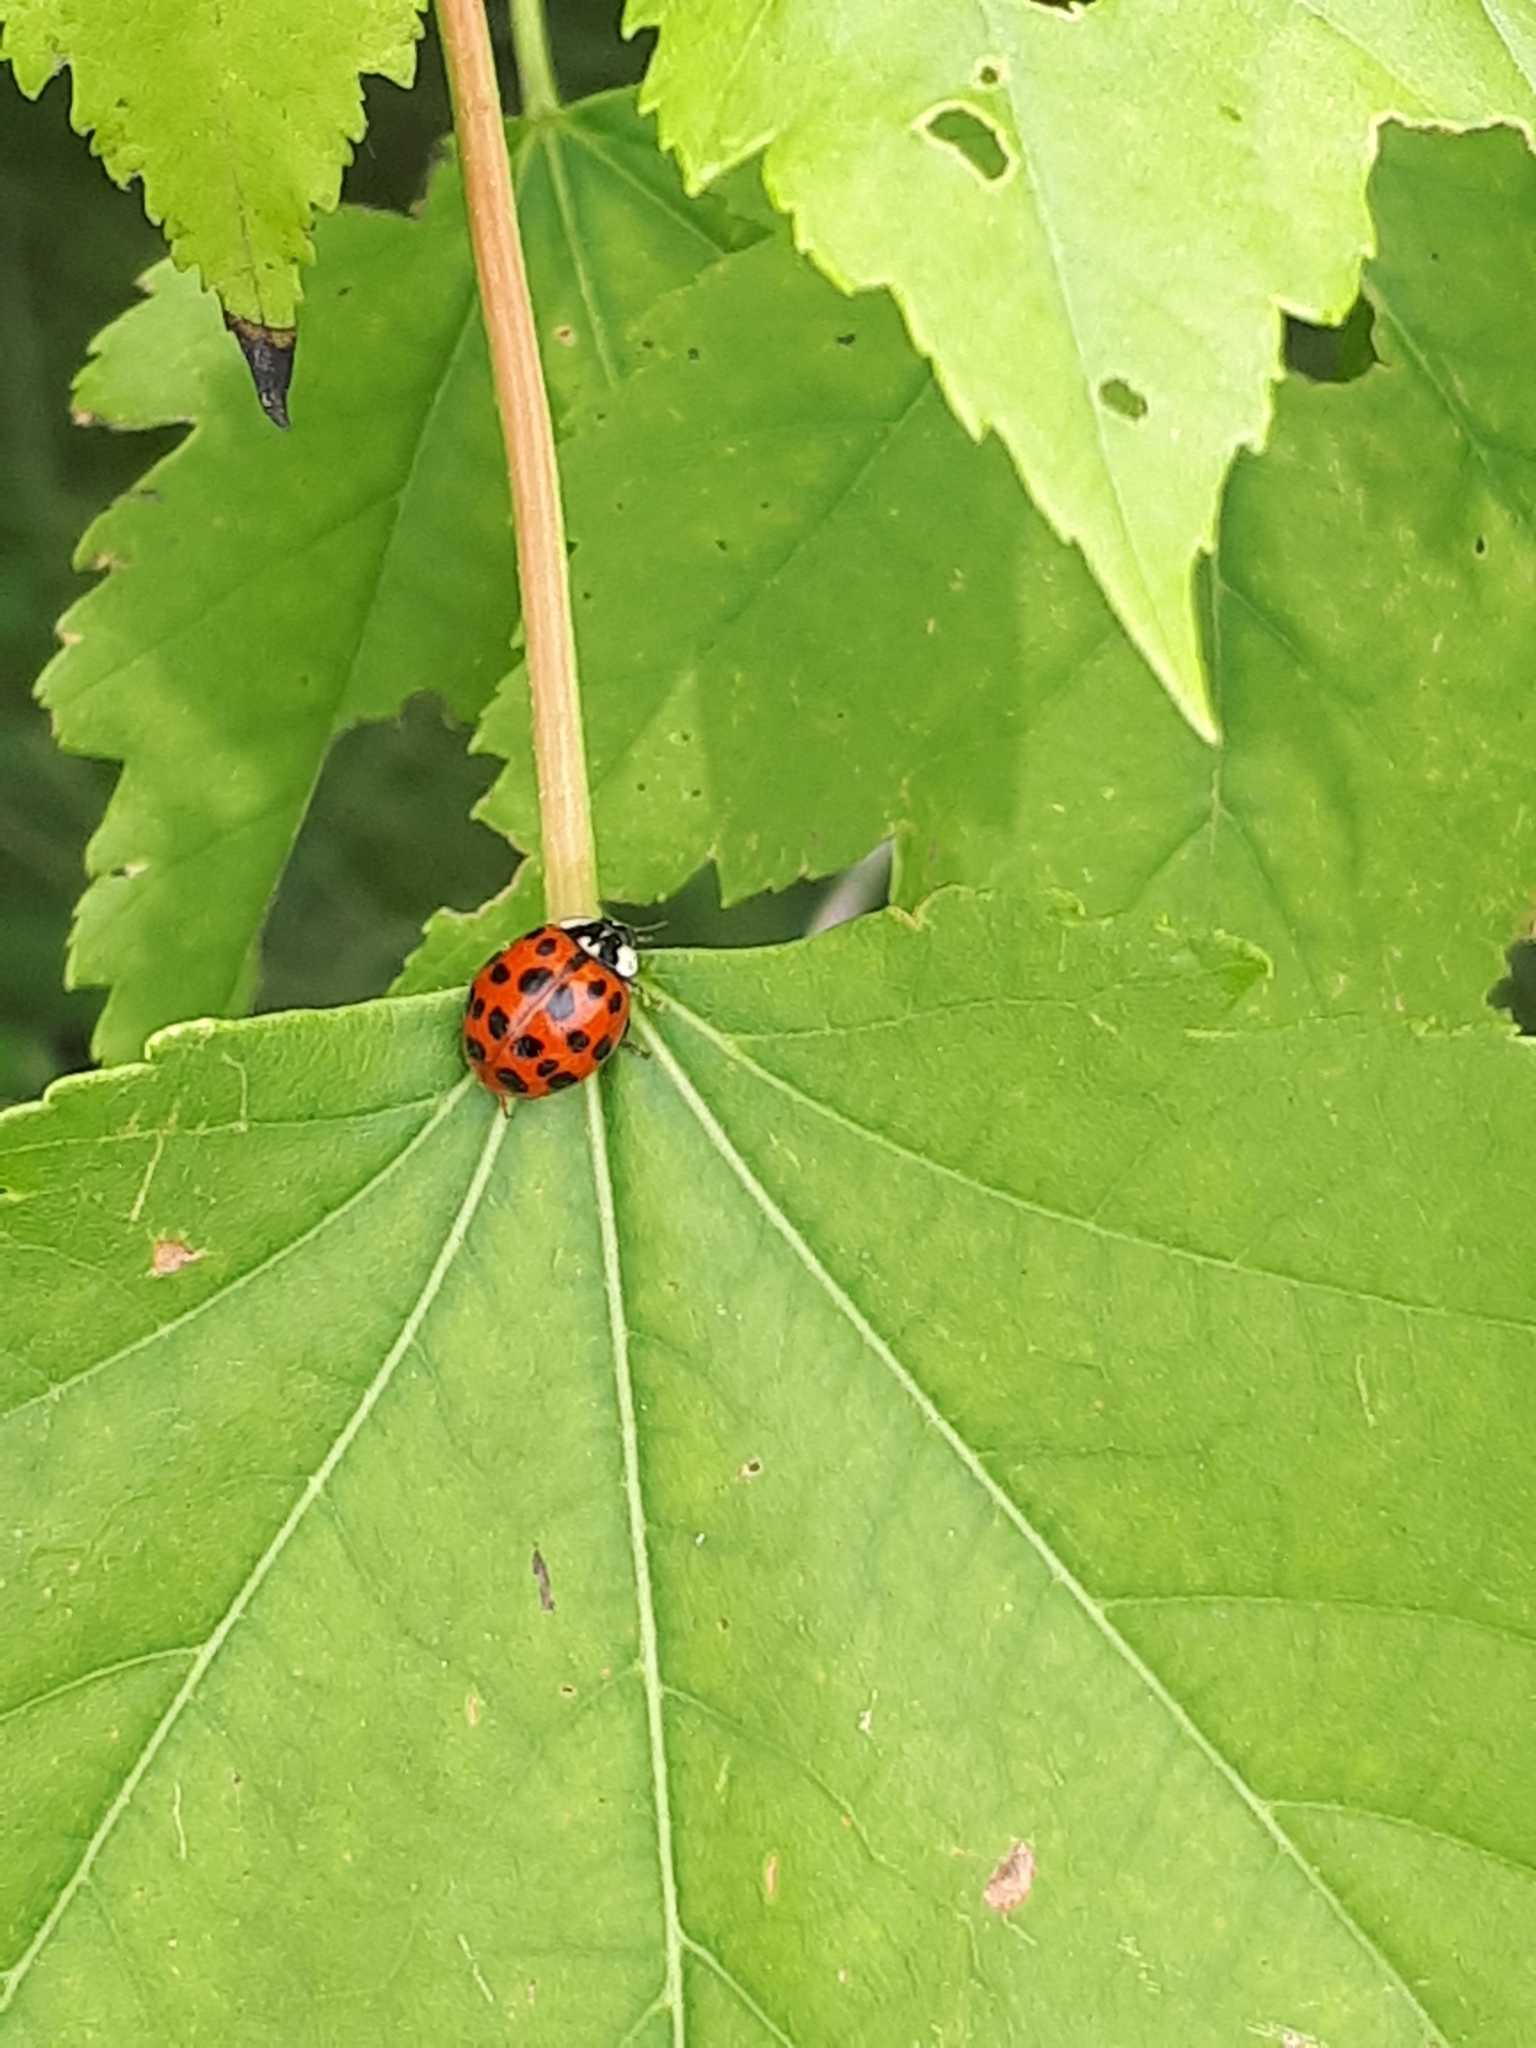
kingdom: Animalia
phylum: Arthropoda
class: Insecta
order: Coleoptera
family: Coccinellidae
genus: Harmonia
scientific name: Harmonia axyridis
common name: Harlequin ladybird
